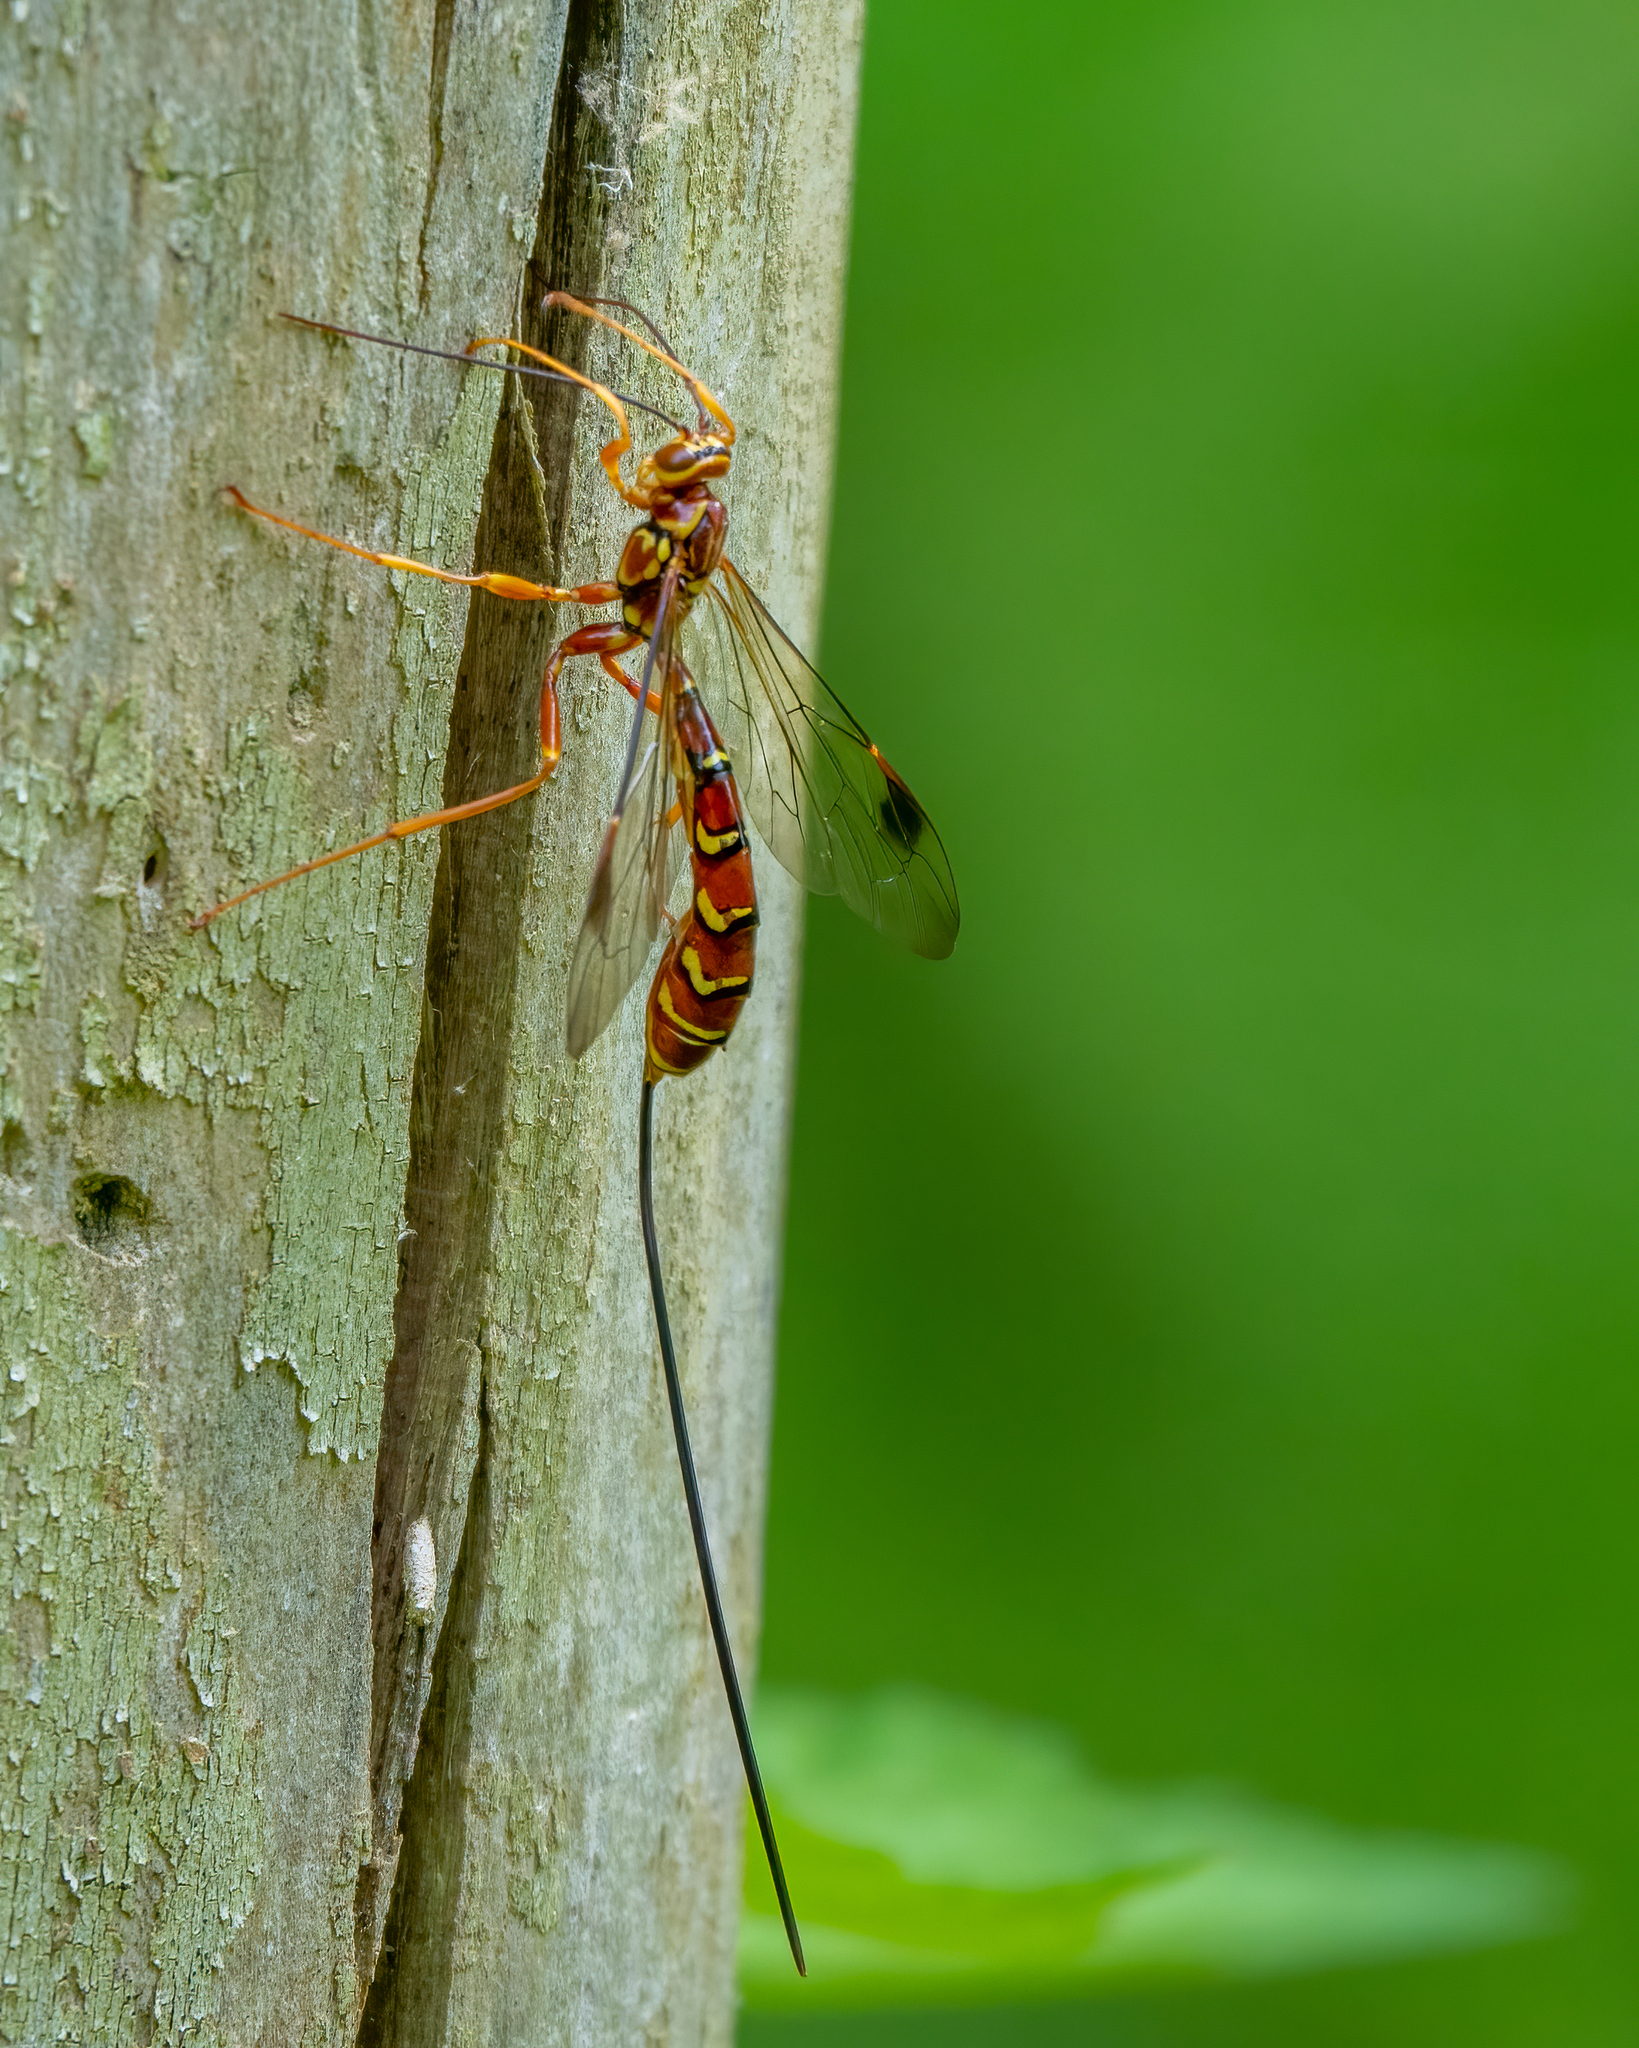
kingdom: Animalia
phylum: Arthropoda
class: Insecta
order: Hymenoptera
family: Ichneumonidae
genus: Megarhyssa
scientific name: Megarhyssa greenei
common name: Greene's giant ichneumonid wasp
